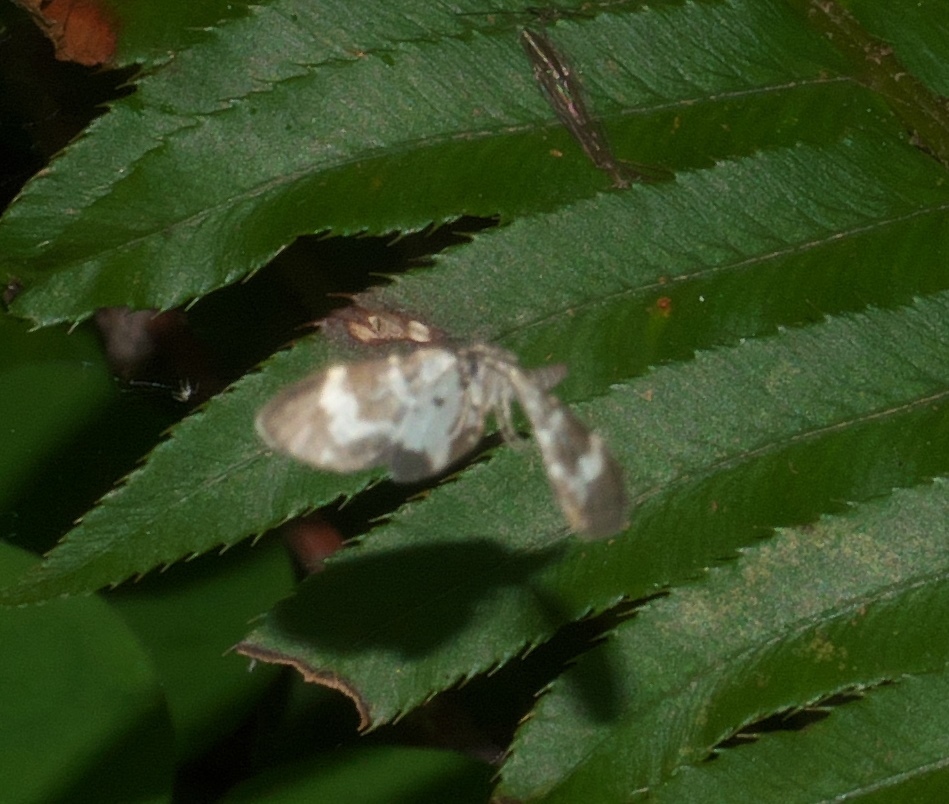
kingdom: Animalia
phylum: Arthropoda
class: Insecta
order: Lepidoptera
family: Geometridae
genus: Trichodezia
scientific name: Trichodezia californiata
